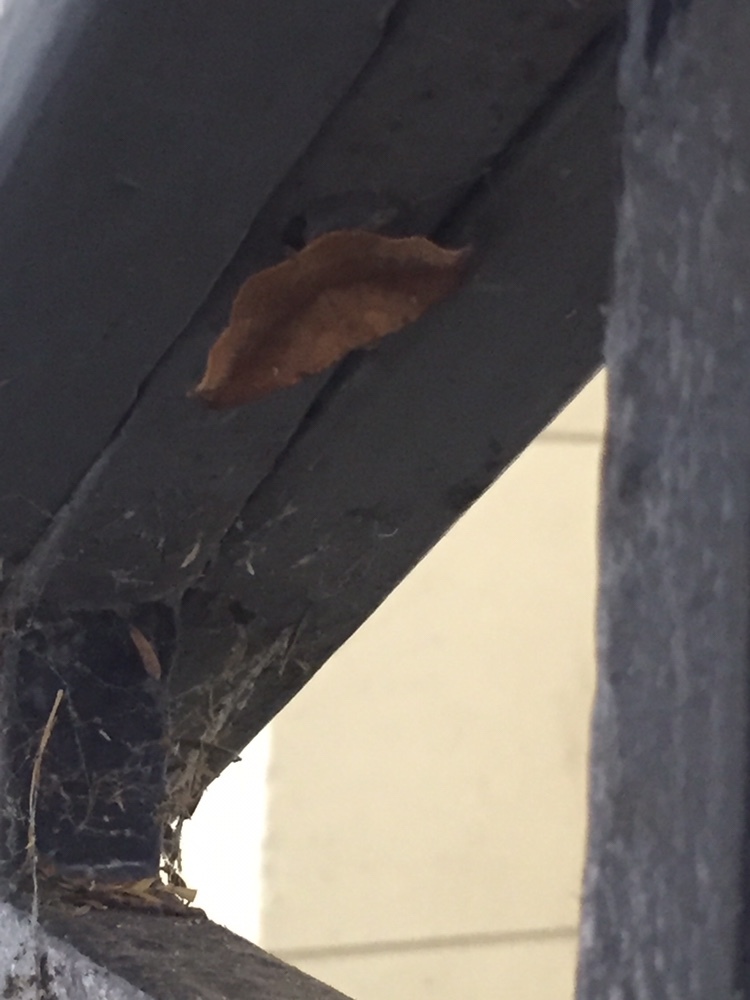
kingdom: Animalia
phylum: Arthropoda
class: Insecta
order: Lepidoptera
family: Geometridae
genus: Sarisa
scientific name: Sarisa muriferata
